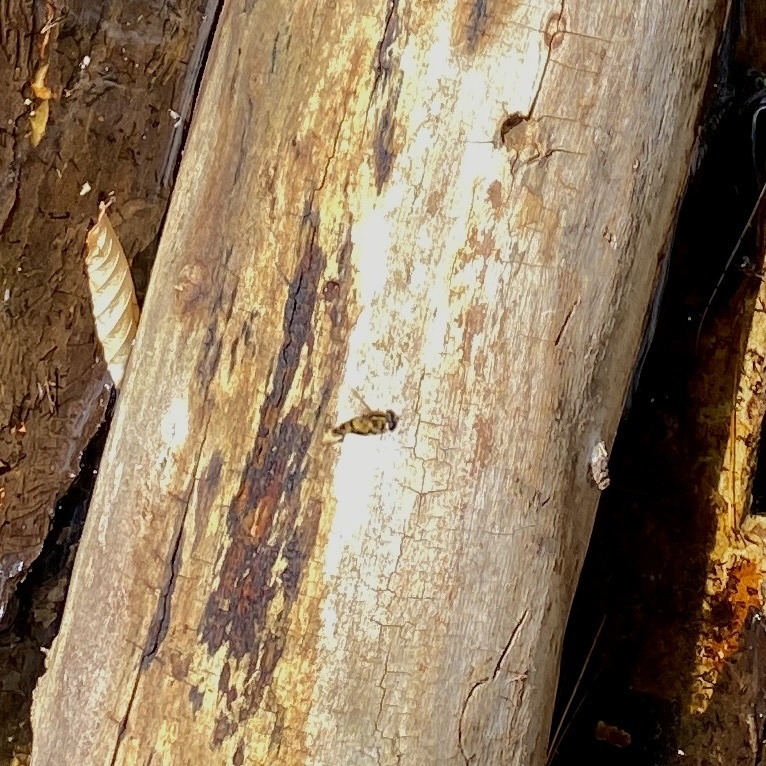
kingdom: Animalia
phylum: Arthropoda
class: Insecta
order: Diptera
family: Syrphidae
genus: Helophilus
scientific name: Helophilus fasciatus
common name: Narrow-headed marsh fly
